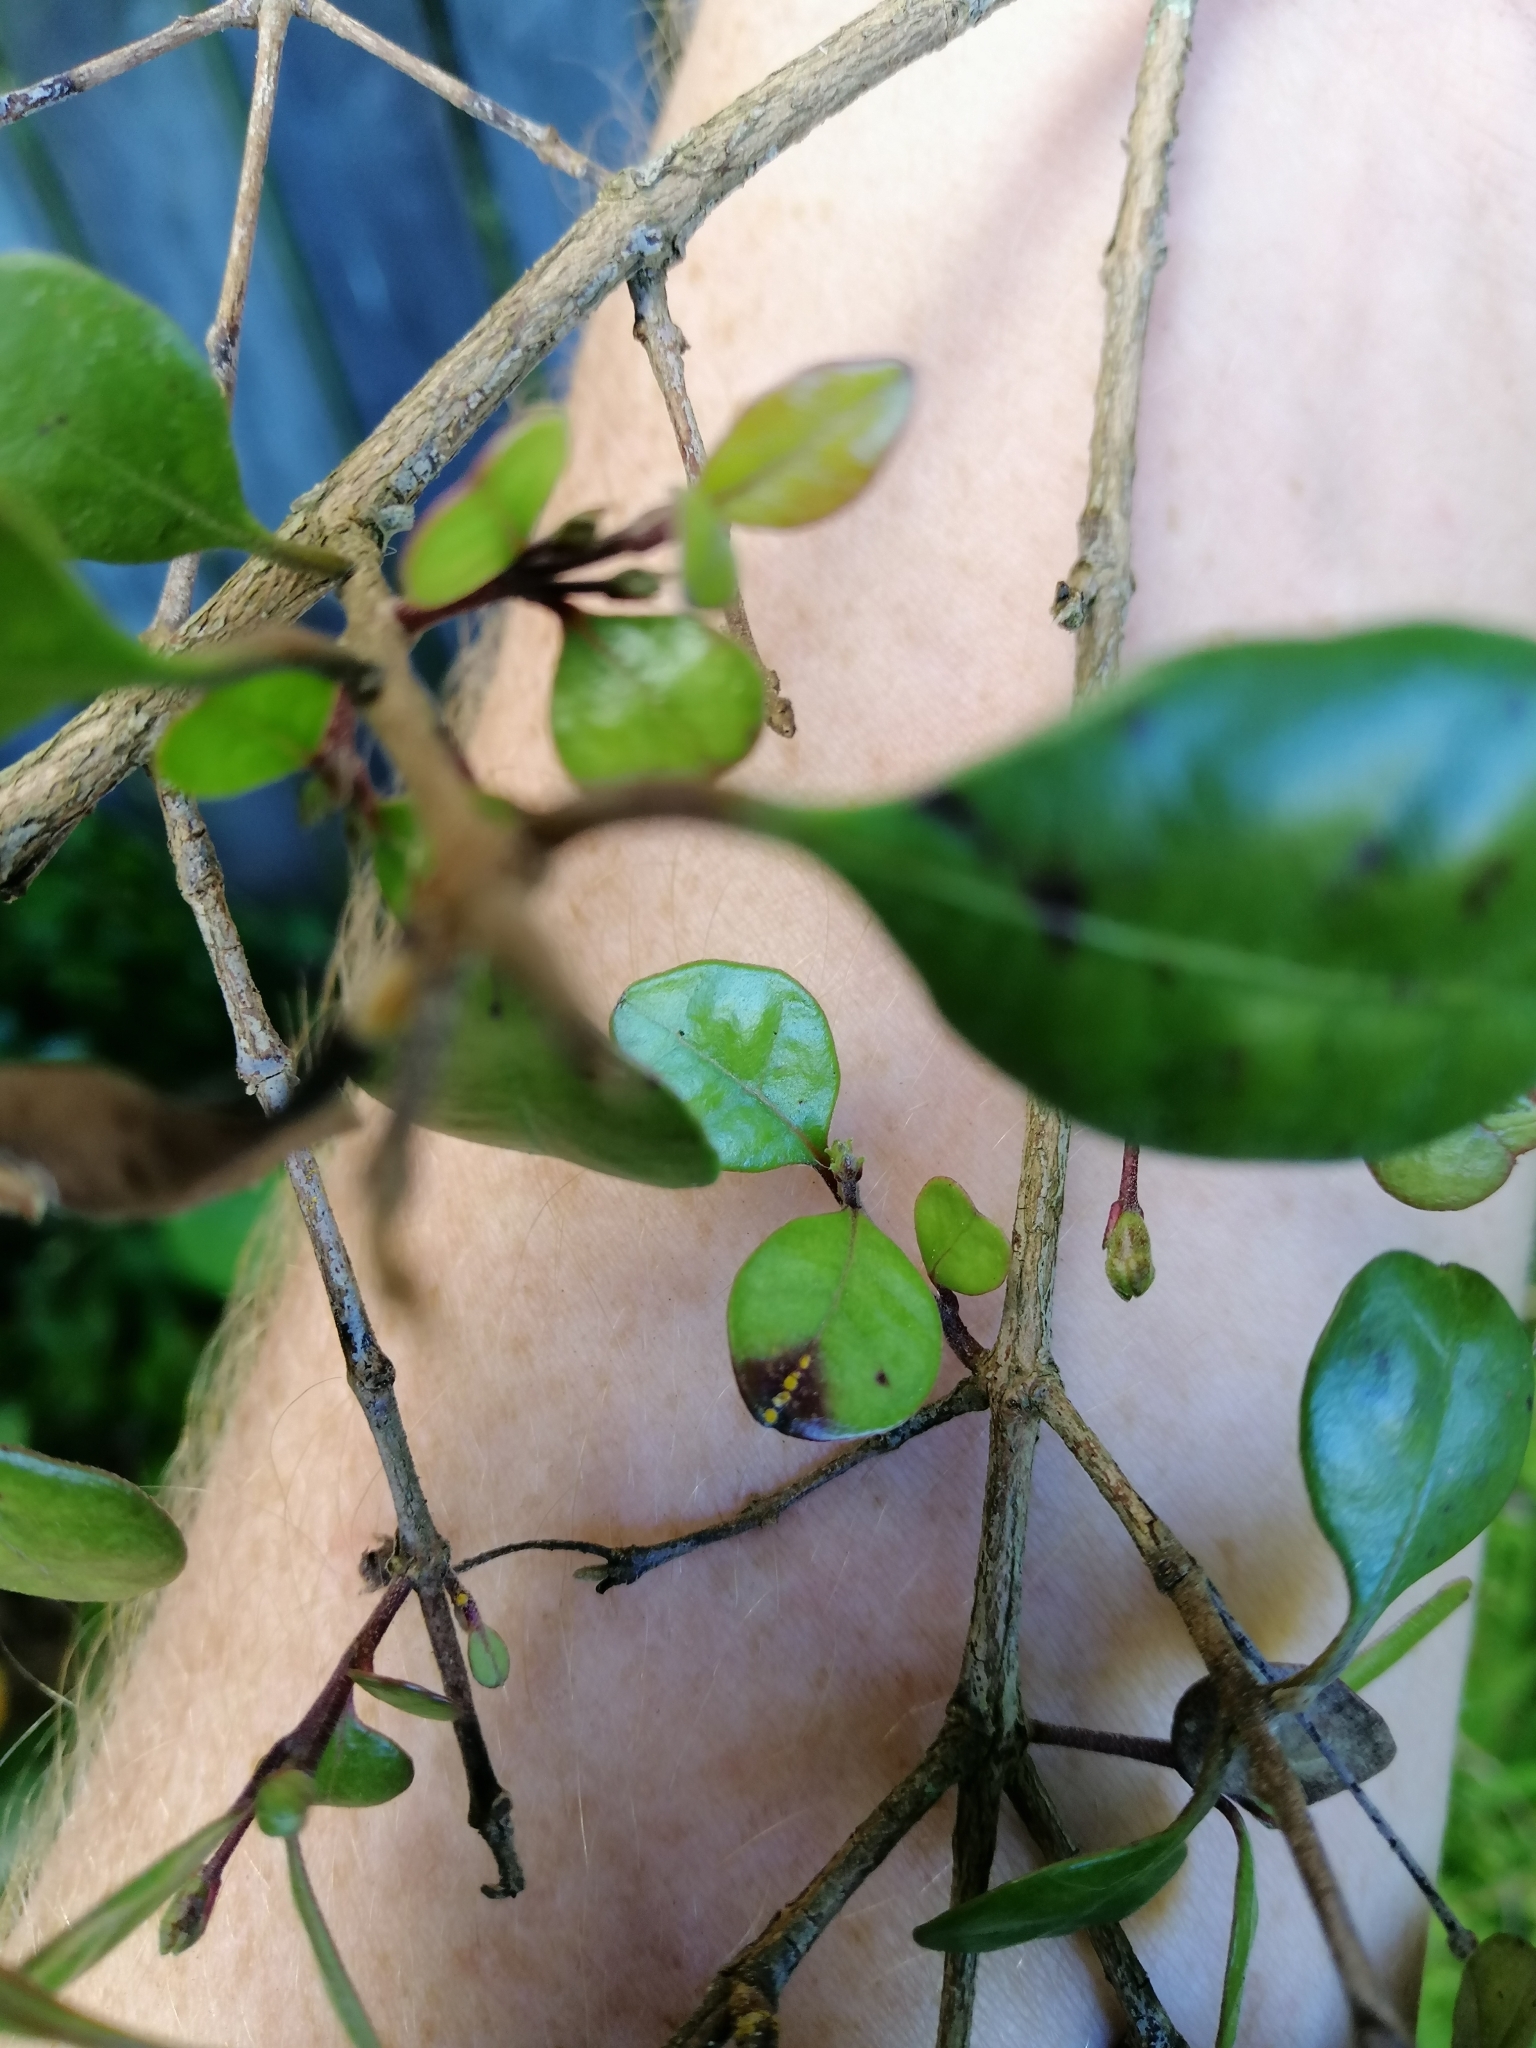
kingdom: Fungi
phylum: Basidiomycota
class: Pucciniomycetes
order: Pucciniales
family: Sphaerophragmiaceae
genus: Austropuccinia
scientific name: Austropuccinia psidii
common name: Myrtle rust
